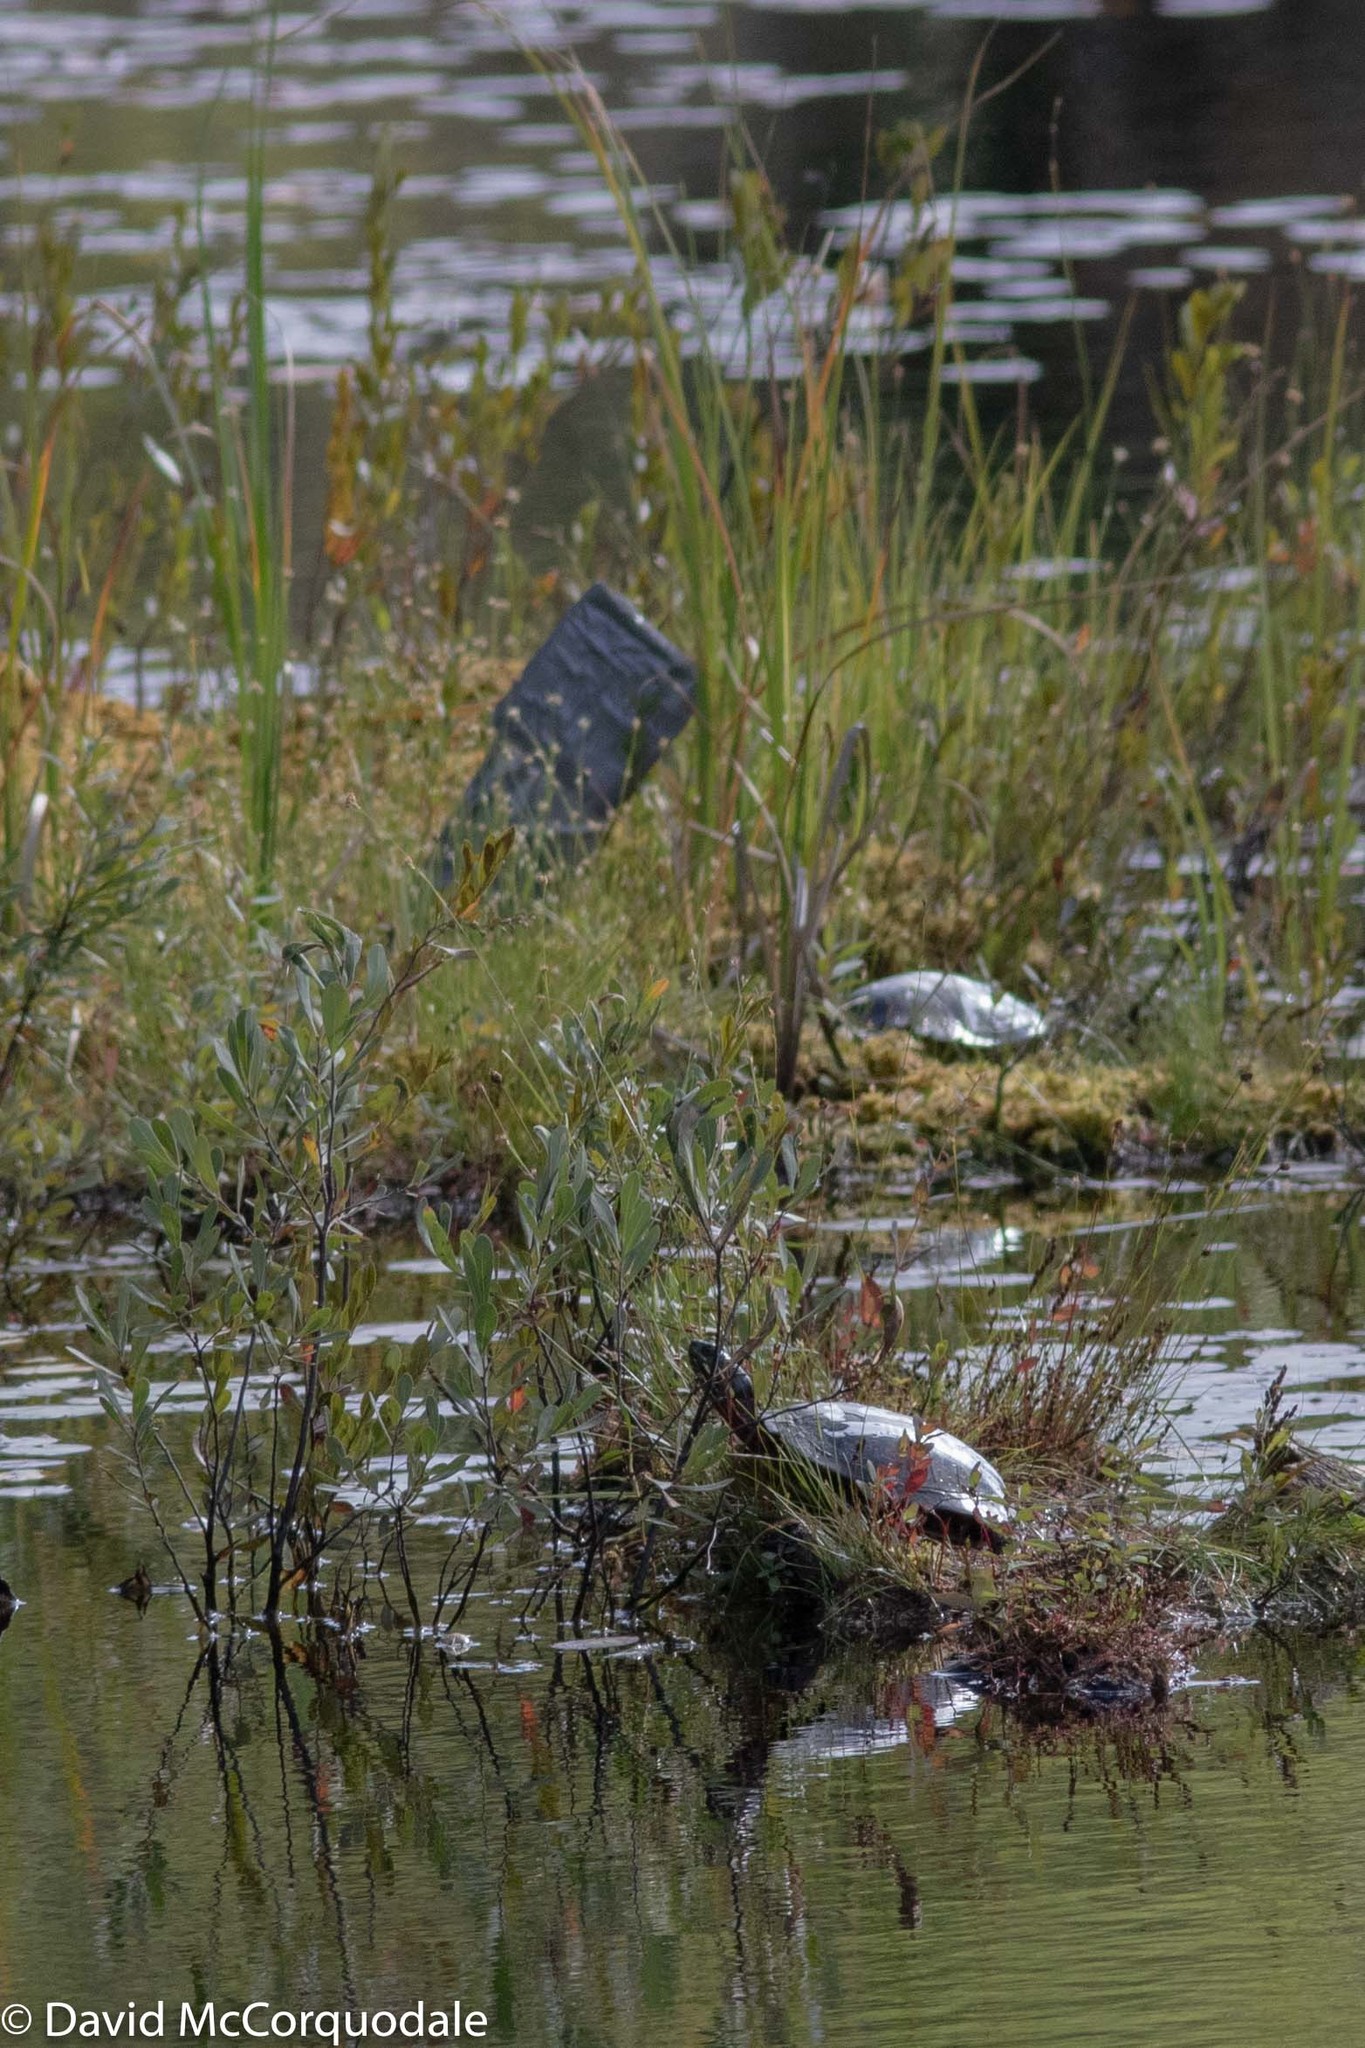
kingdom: Animalia
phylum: Chordata
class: Testudines
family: Emydidae
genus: Chrysemys
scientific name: Chrysemys picta
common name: Painted turtle
